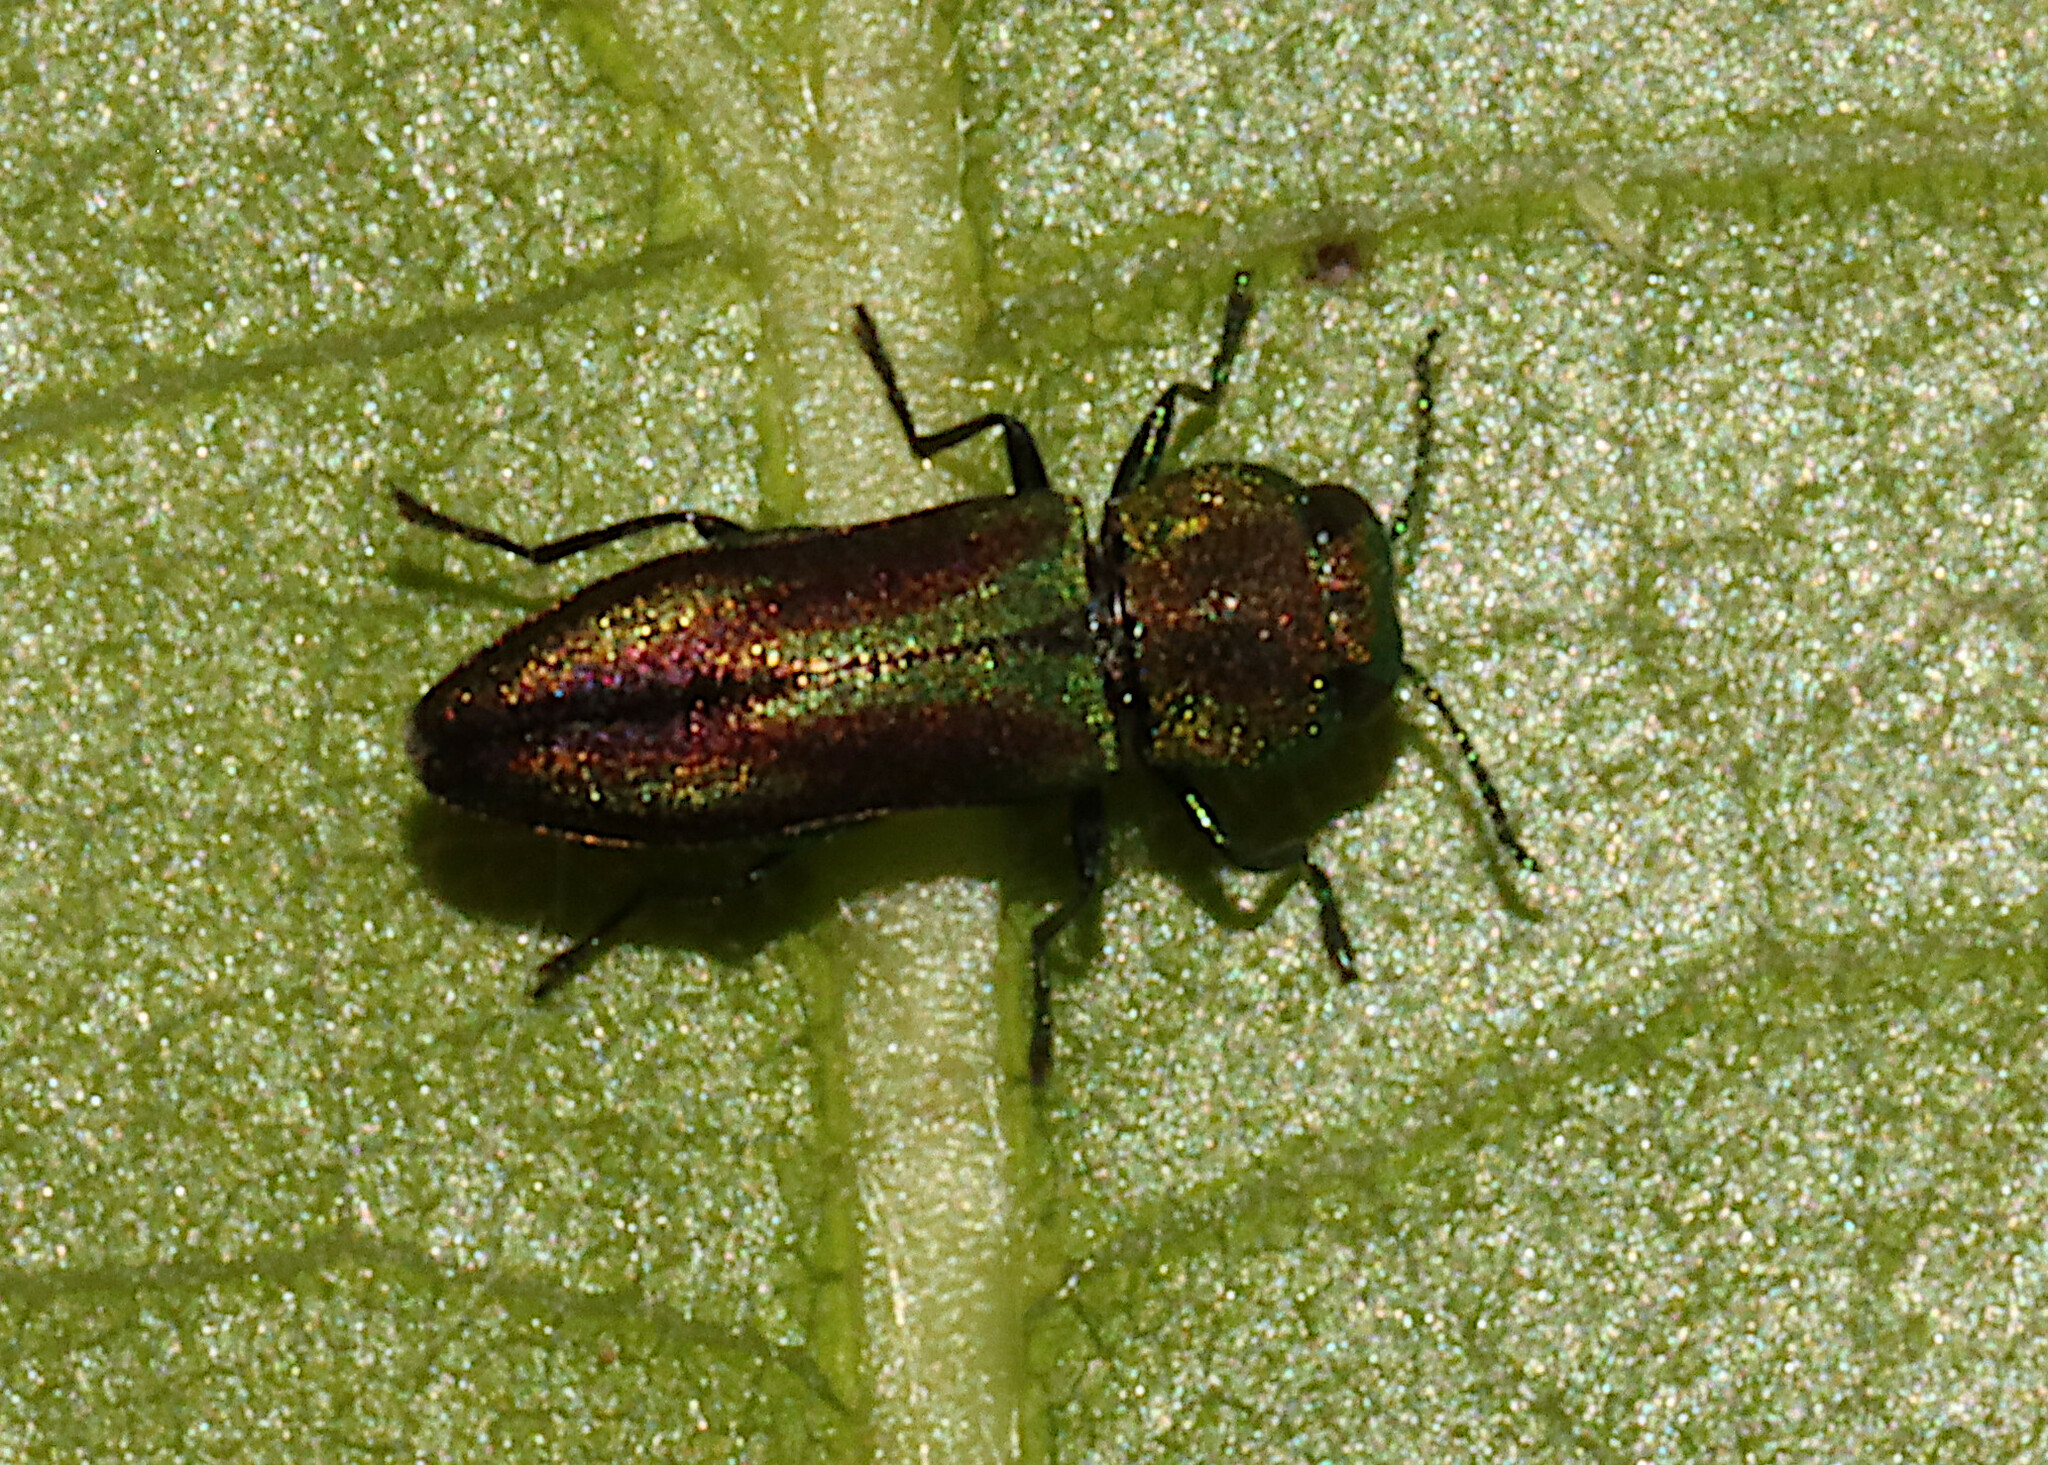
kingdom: Animalia
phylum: Arthropoda
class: Insecta
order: Coleoptera
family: Buprestidae
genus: Anthaxia
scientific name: Anthaxia quercata
